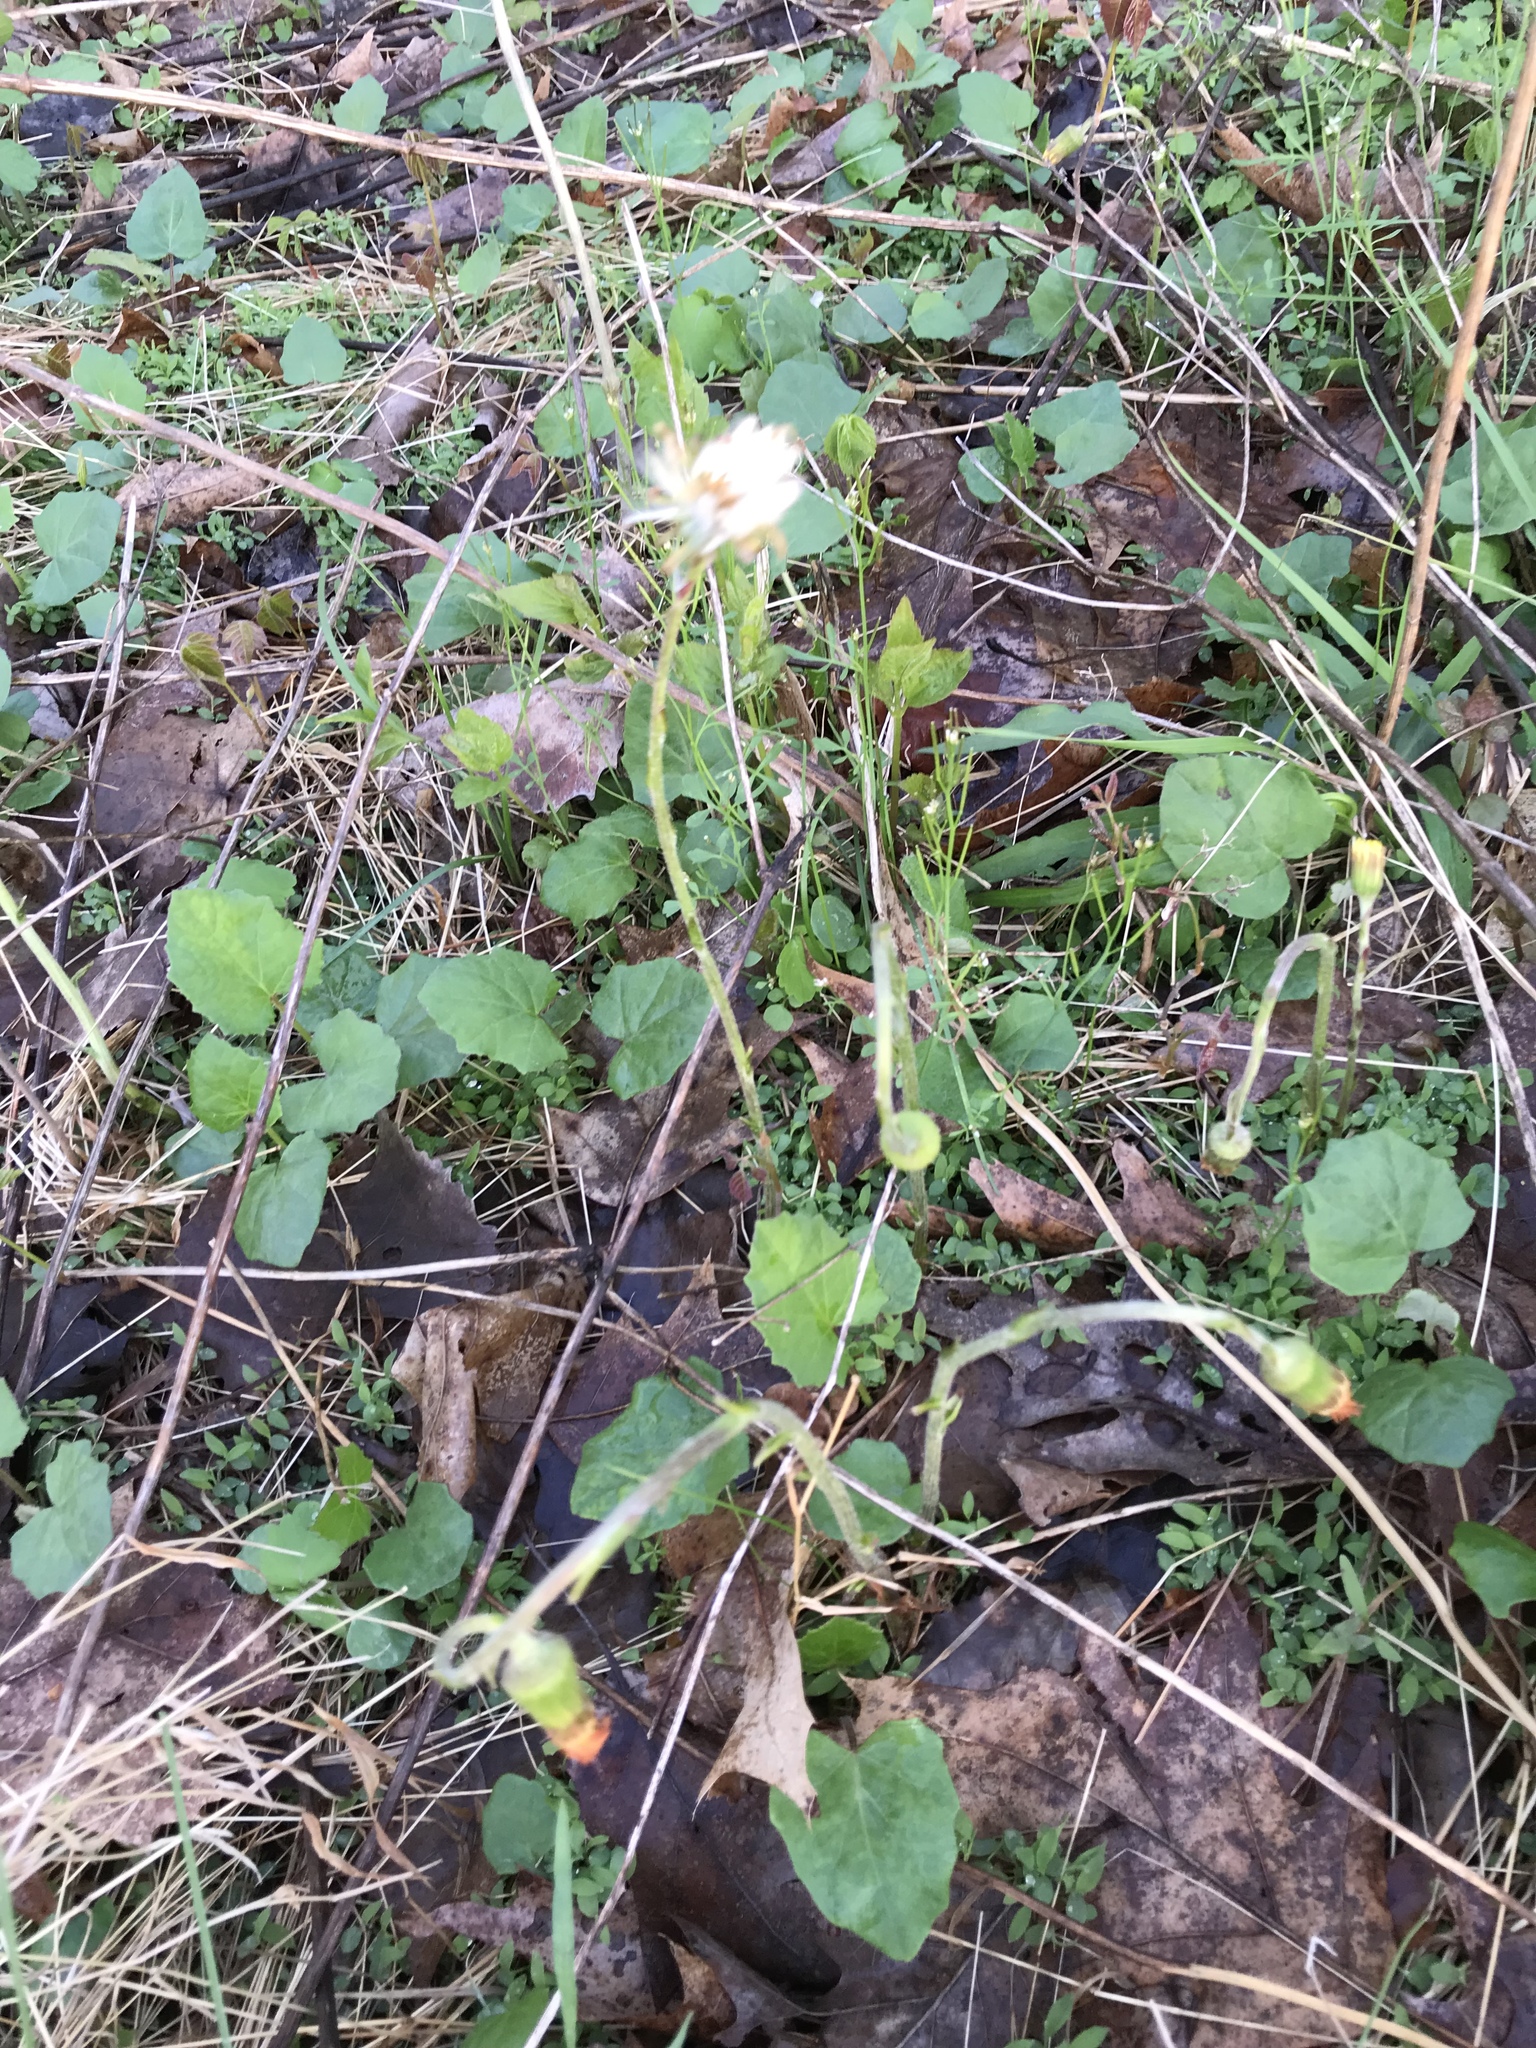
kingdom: Plantae
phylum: Tracheophyta
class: Magnoliopsida
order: Asterales
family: Asteraceae
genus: Tussilago
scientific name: Tussilago farfara
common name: Coltsfoot
